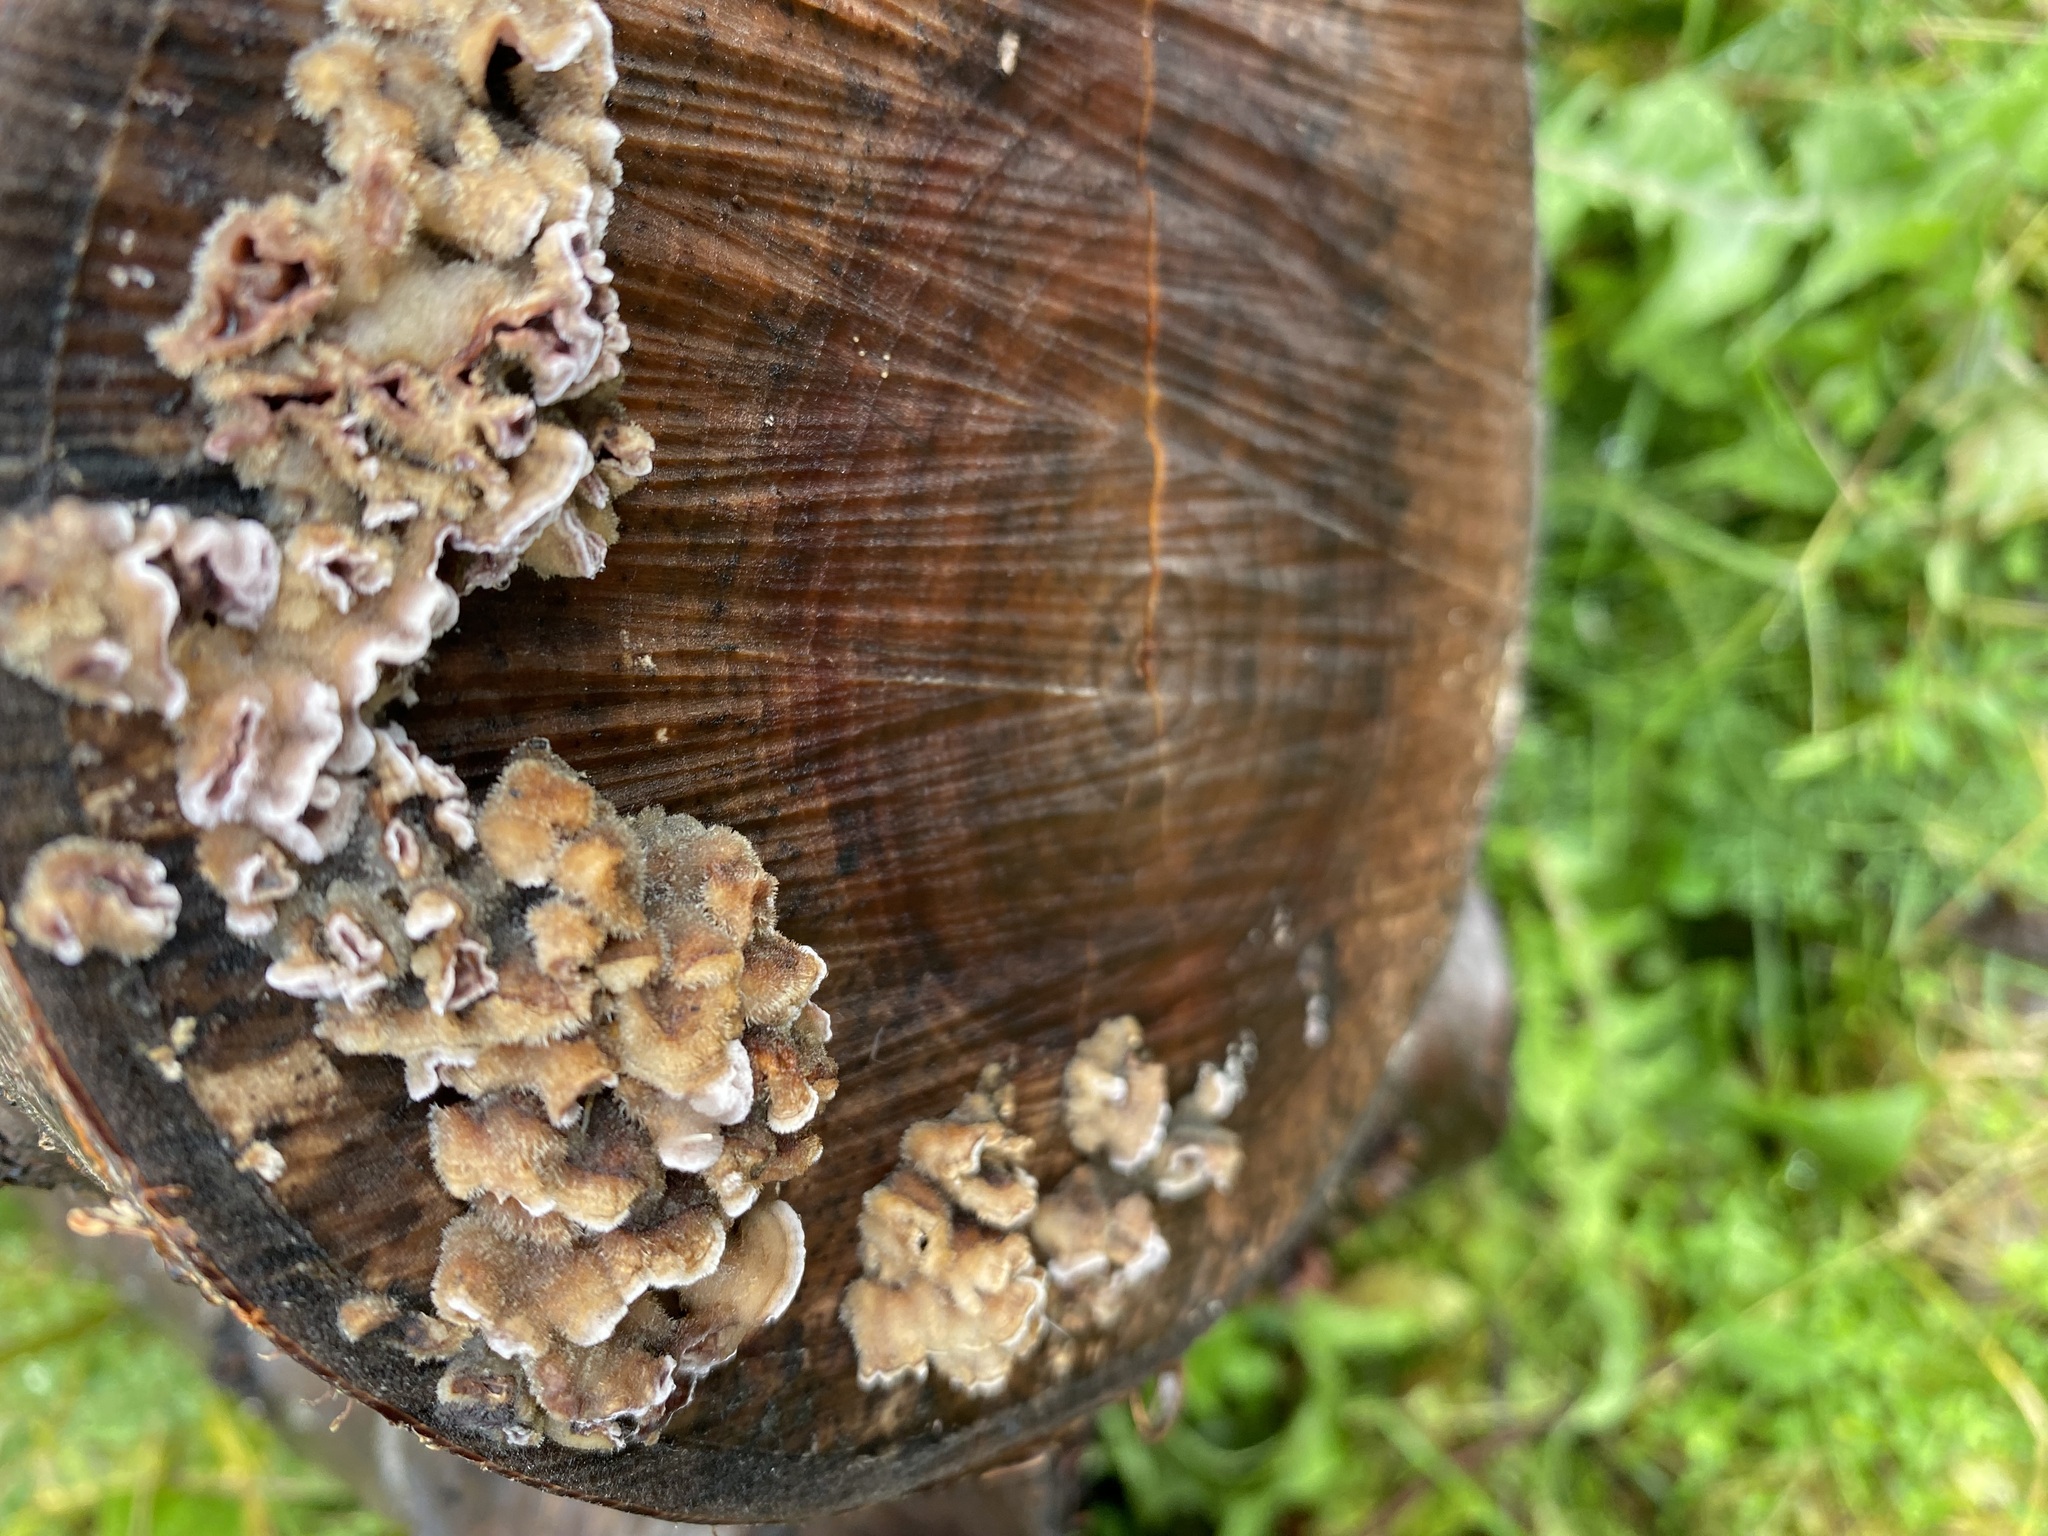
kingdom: Fungi
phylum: Basidiomycota
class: Agaricomycetes
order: Agaricales
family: Cyphellaceae
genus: Chondrostereum
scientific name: Chondrostereum purpureum
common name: Silver leaf disease
